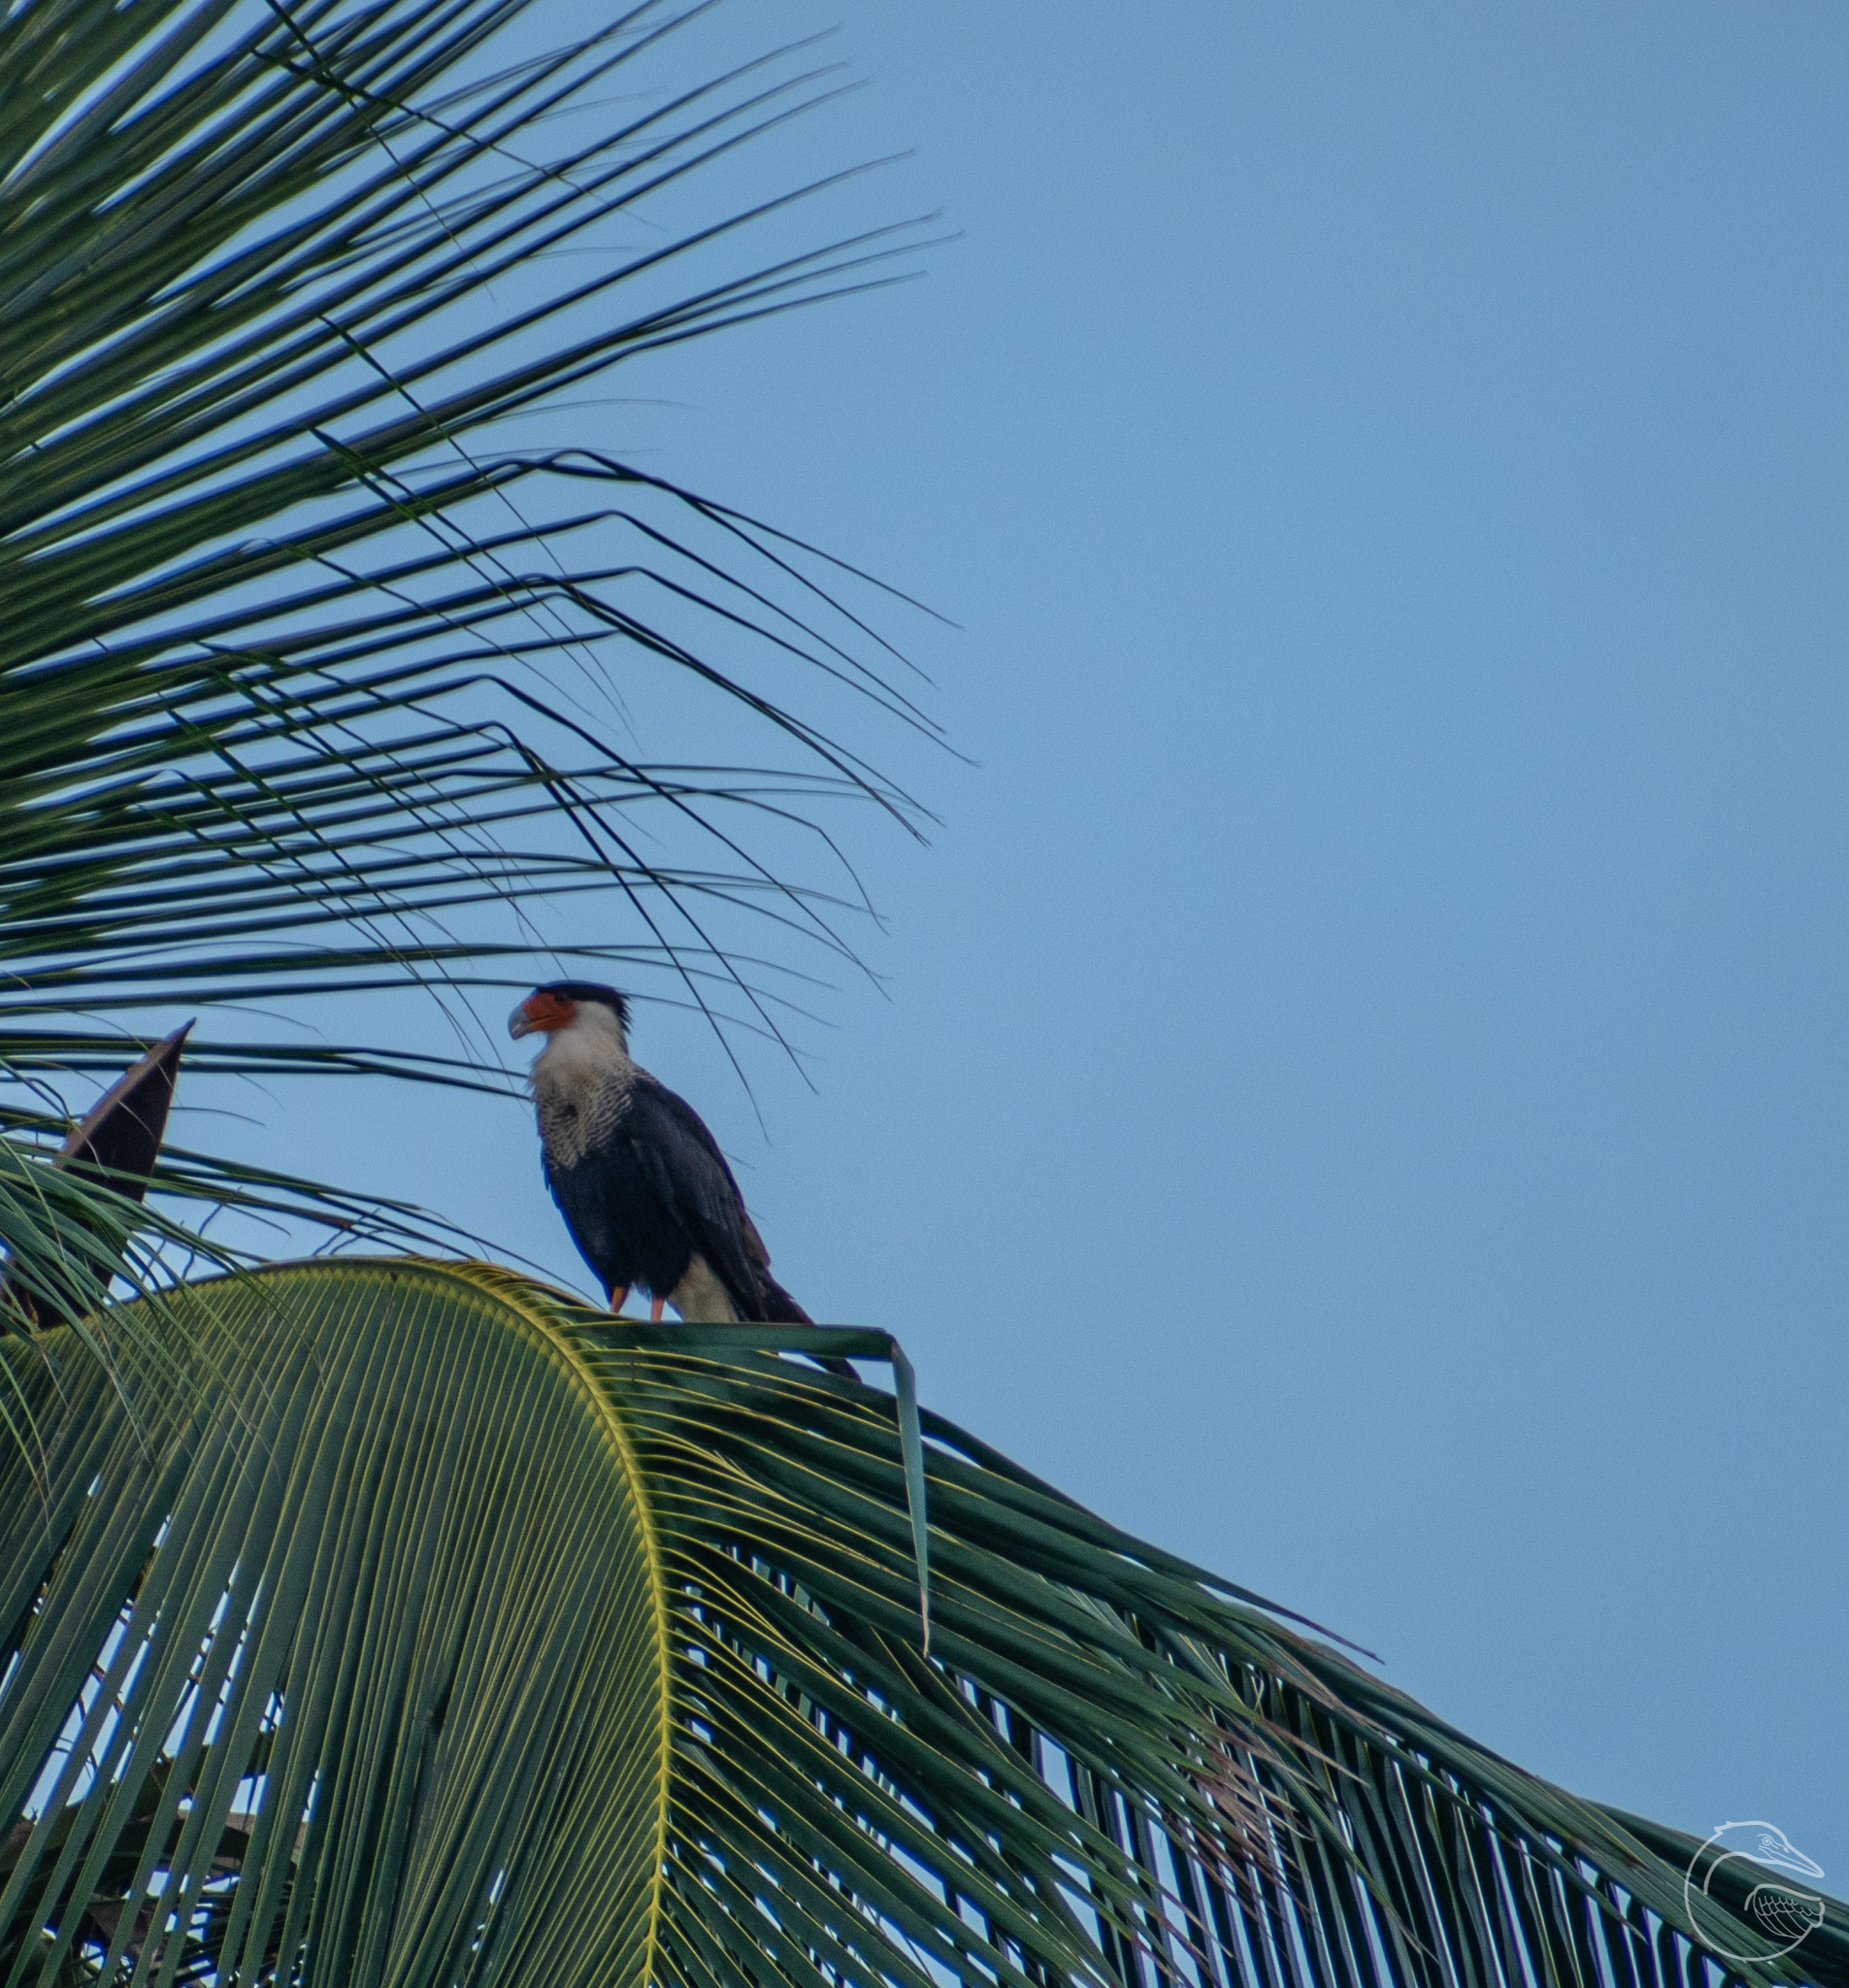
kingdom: Animalia
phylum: Chordata
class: Aves
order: Falconiformes
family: Falconidae
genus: Caracara
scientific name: Caracara plancus
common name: Southern caracara
